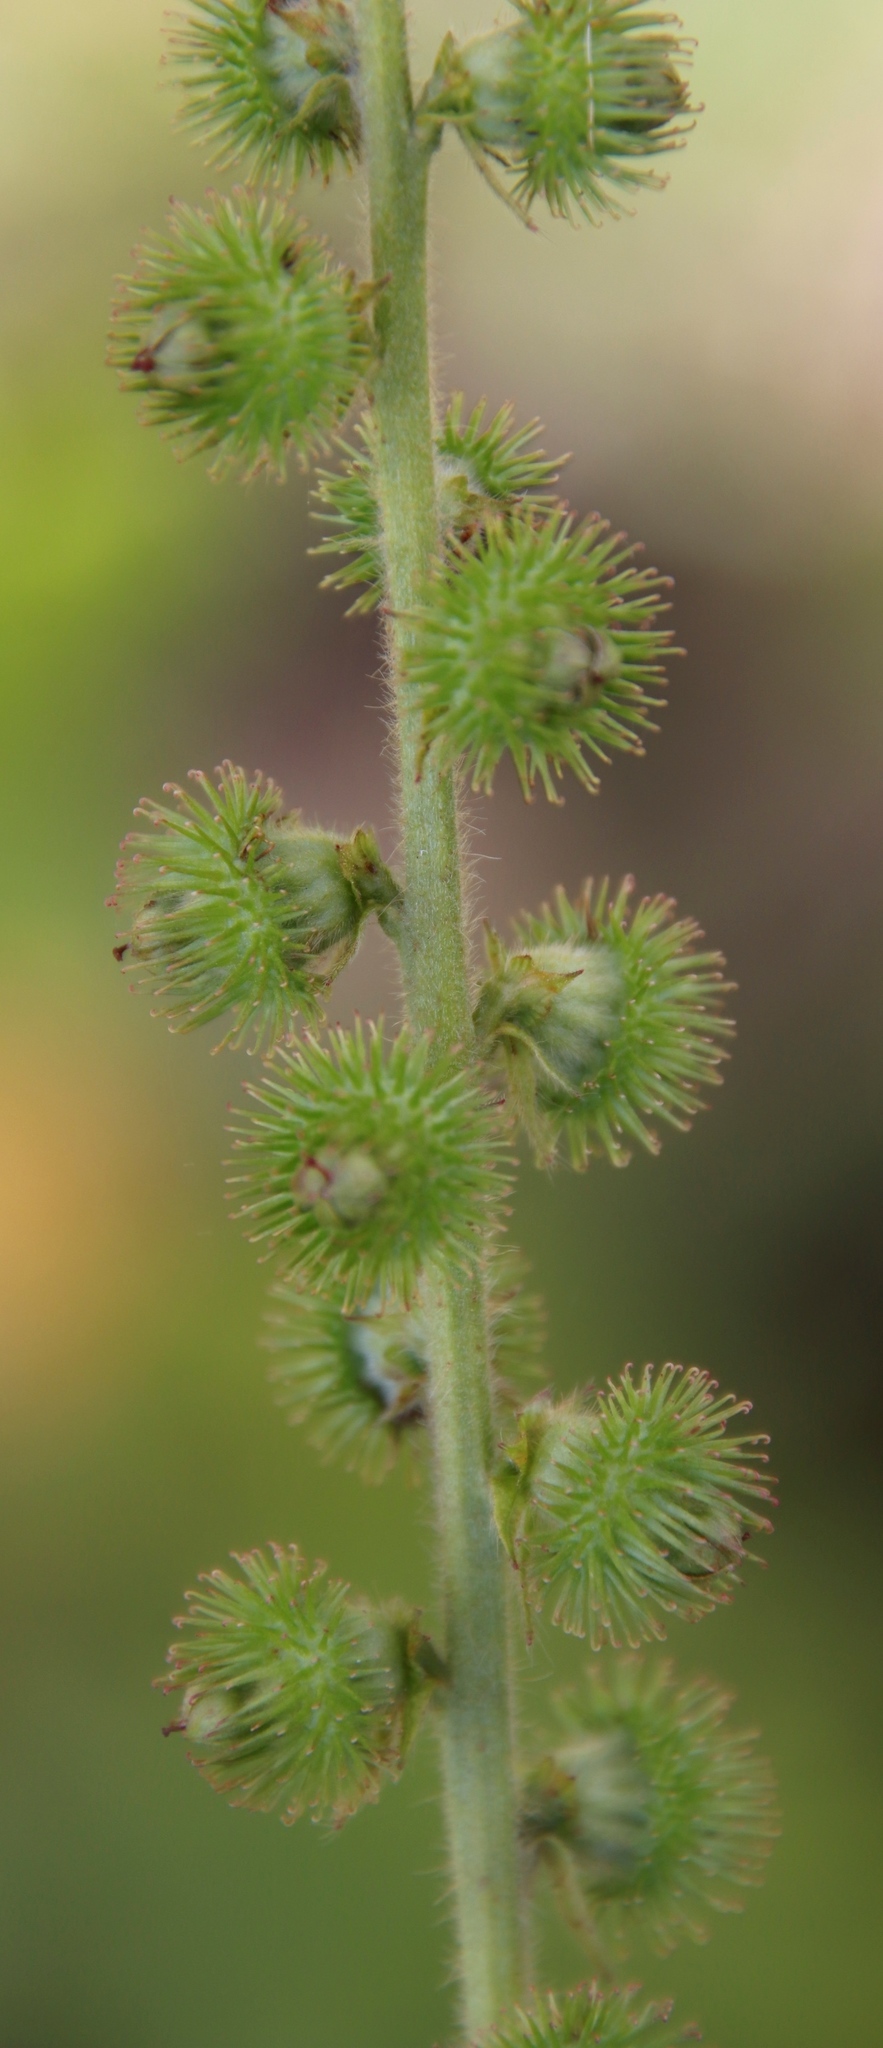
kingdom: Plantae
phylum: Tracheophyta
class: Magnoliopsida
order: Rosales
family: Rosaceae
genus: Agrimonia
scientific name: Agrimonia bracteata
